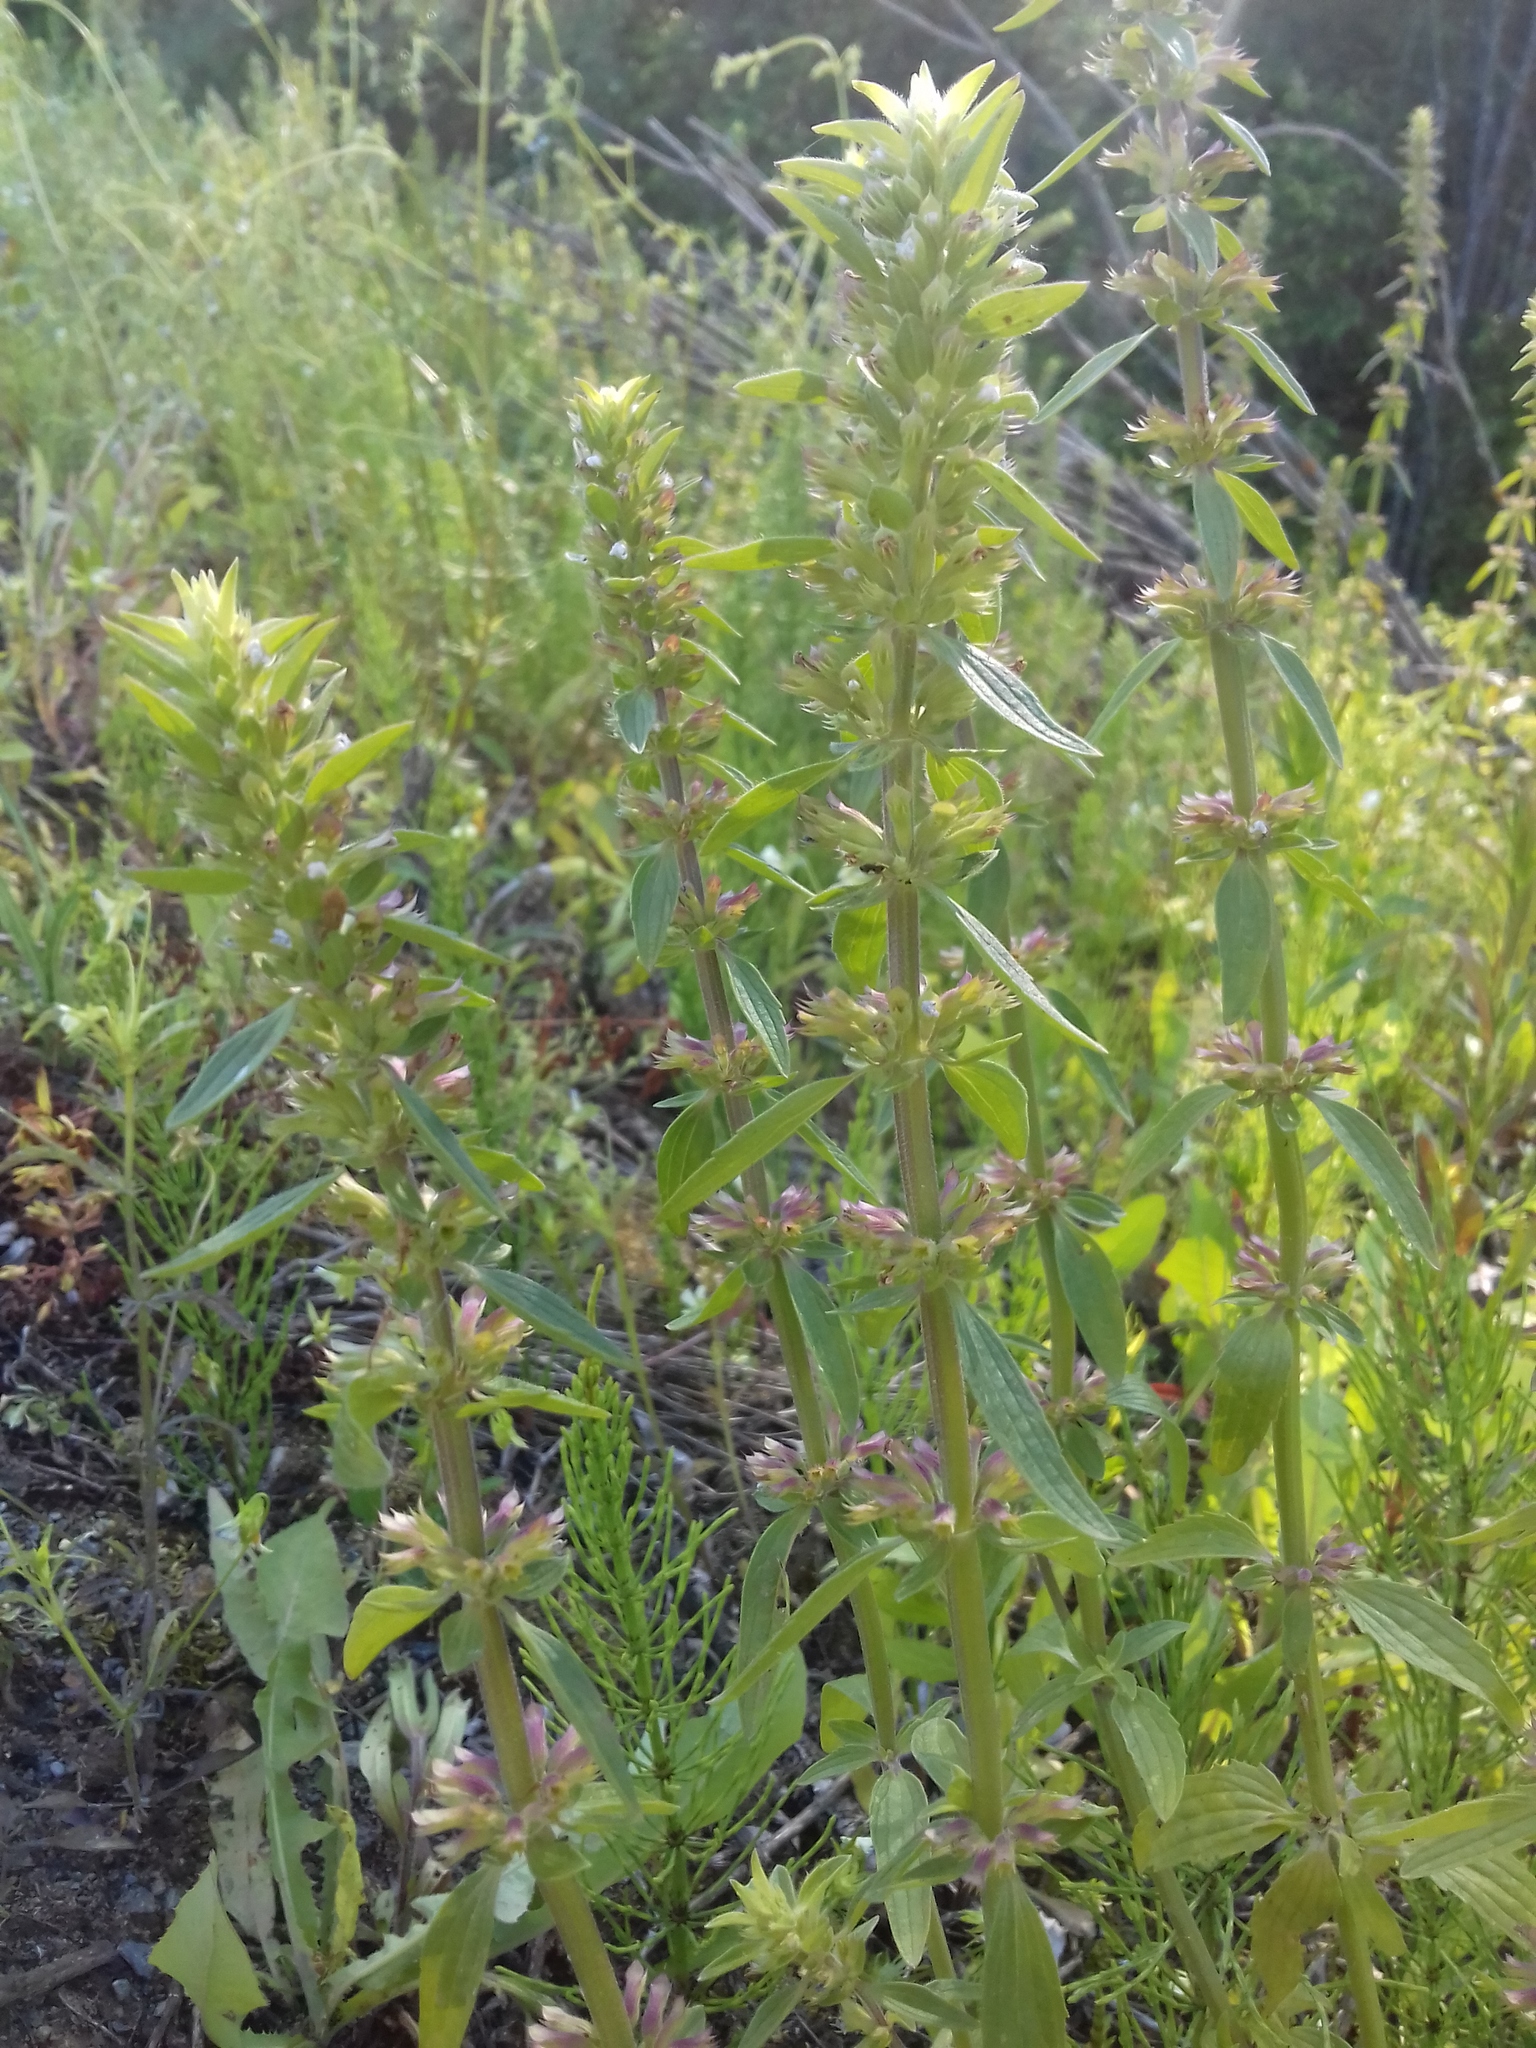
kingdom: Plantae
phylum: Tracheophyta
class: Magnoliopsida
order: Lamiales
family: Lamiaceae
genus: Dracocephalum
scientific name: Dracocephalum thymiflorum
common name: Thymeleaf dragonhead
